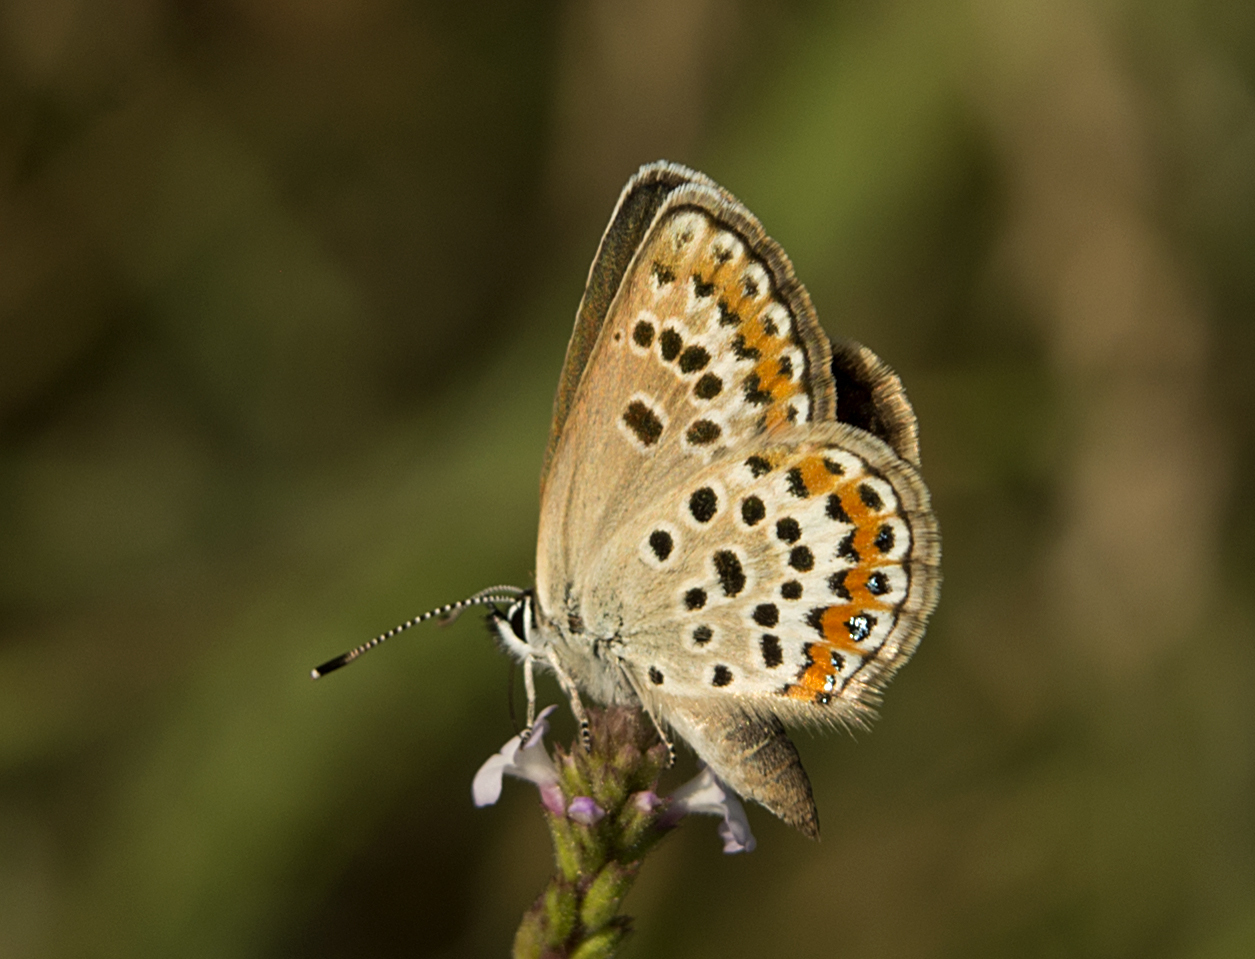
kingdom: Animalia
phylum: Arthropoda
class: Insecta
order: Lepidoptera
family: Lycaenidae
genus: Plebejus
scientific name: Plebejus argus
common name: Silver-studded blue
